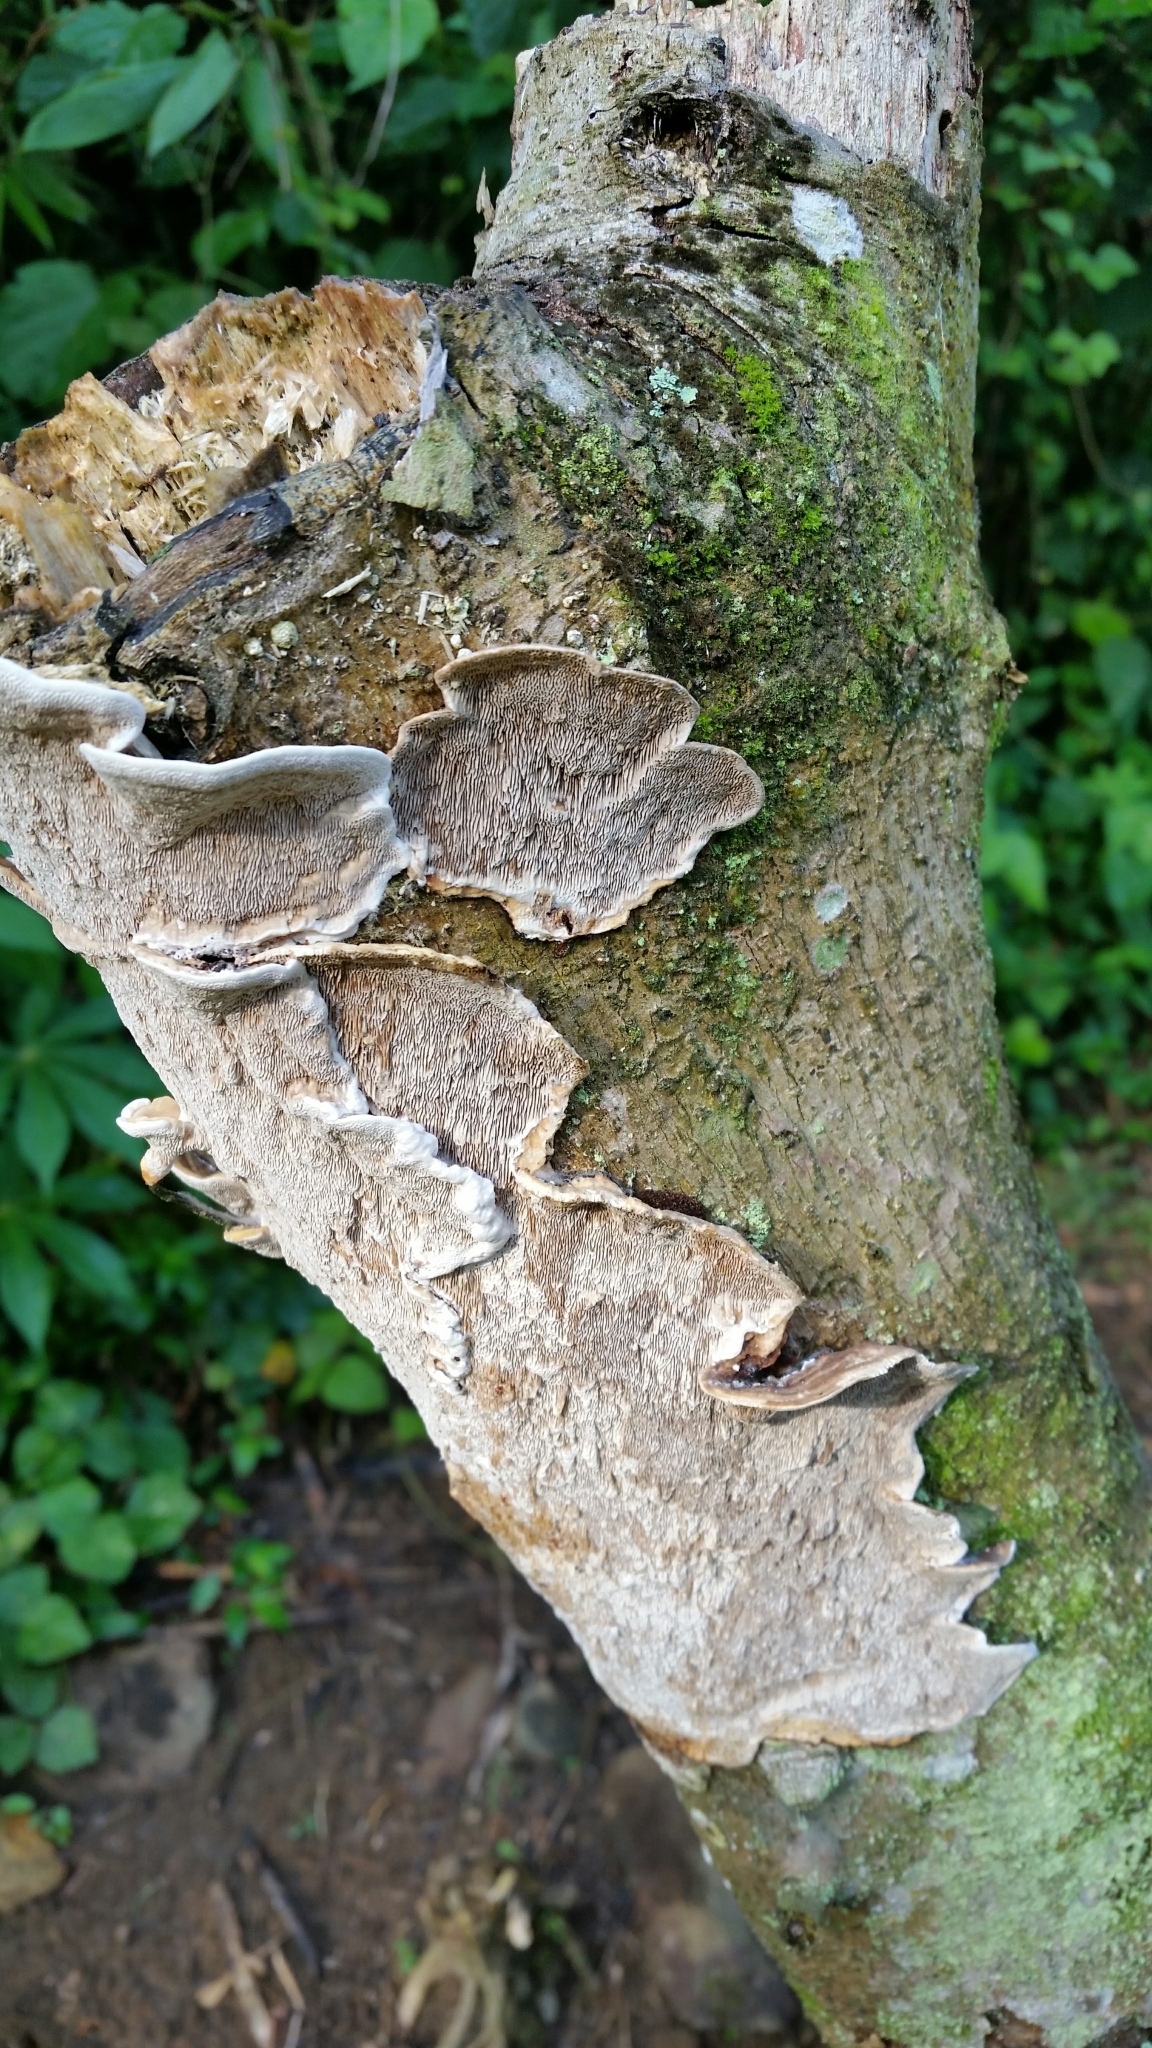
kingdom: Fungi
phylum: Basidiomycota
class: Agaricomycetes
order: Polyporales
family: Polyporaceae
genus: Earliella
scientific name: Earliella scabrosa
